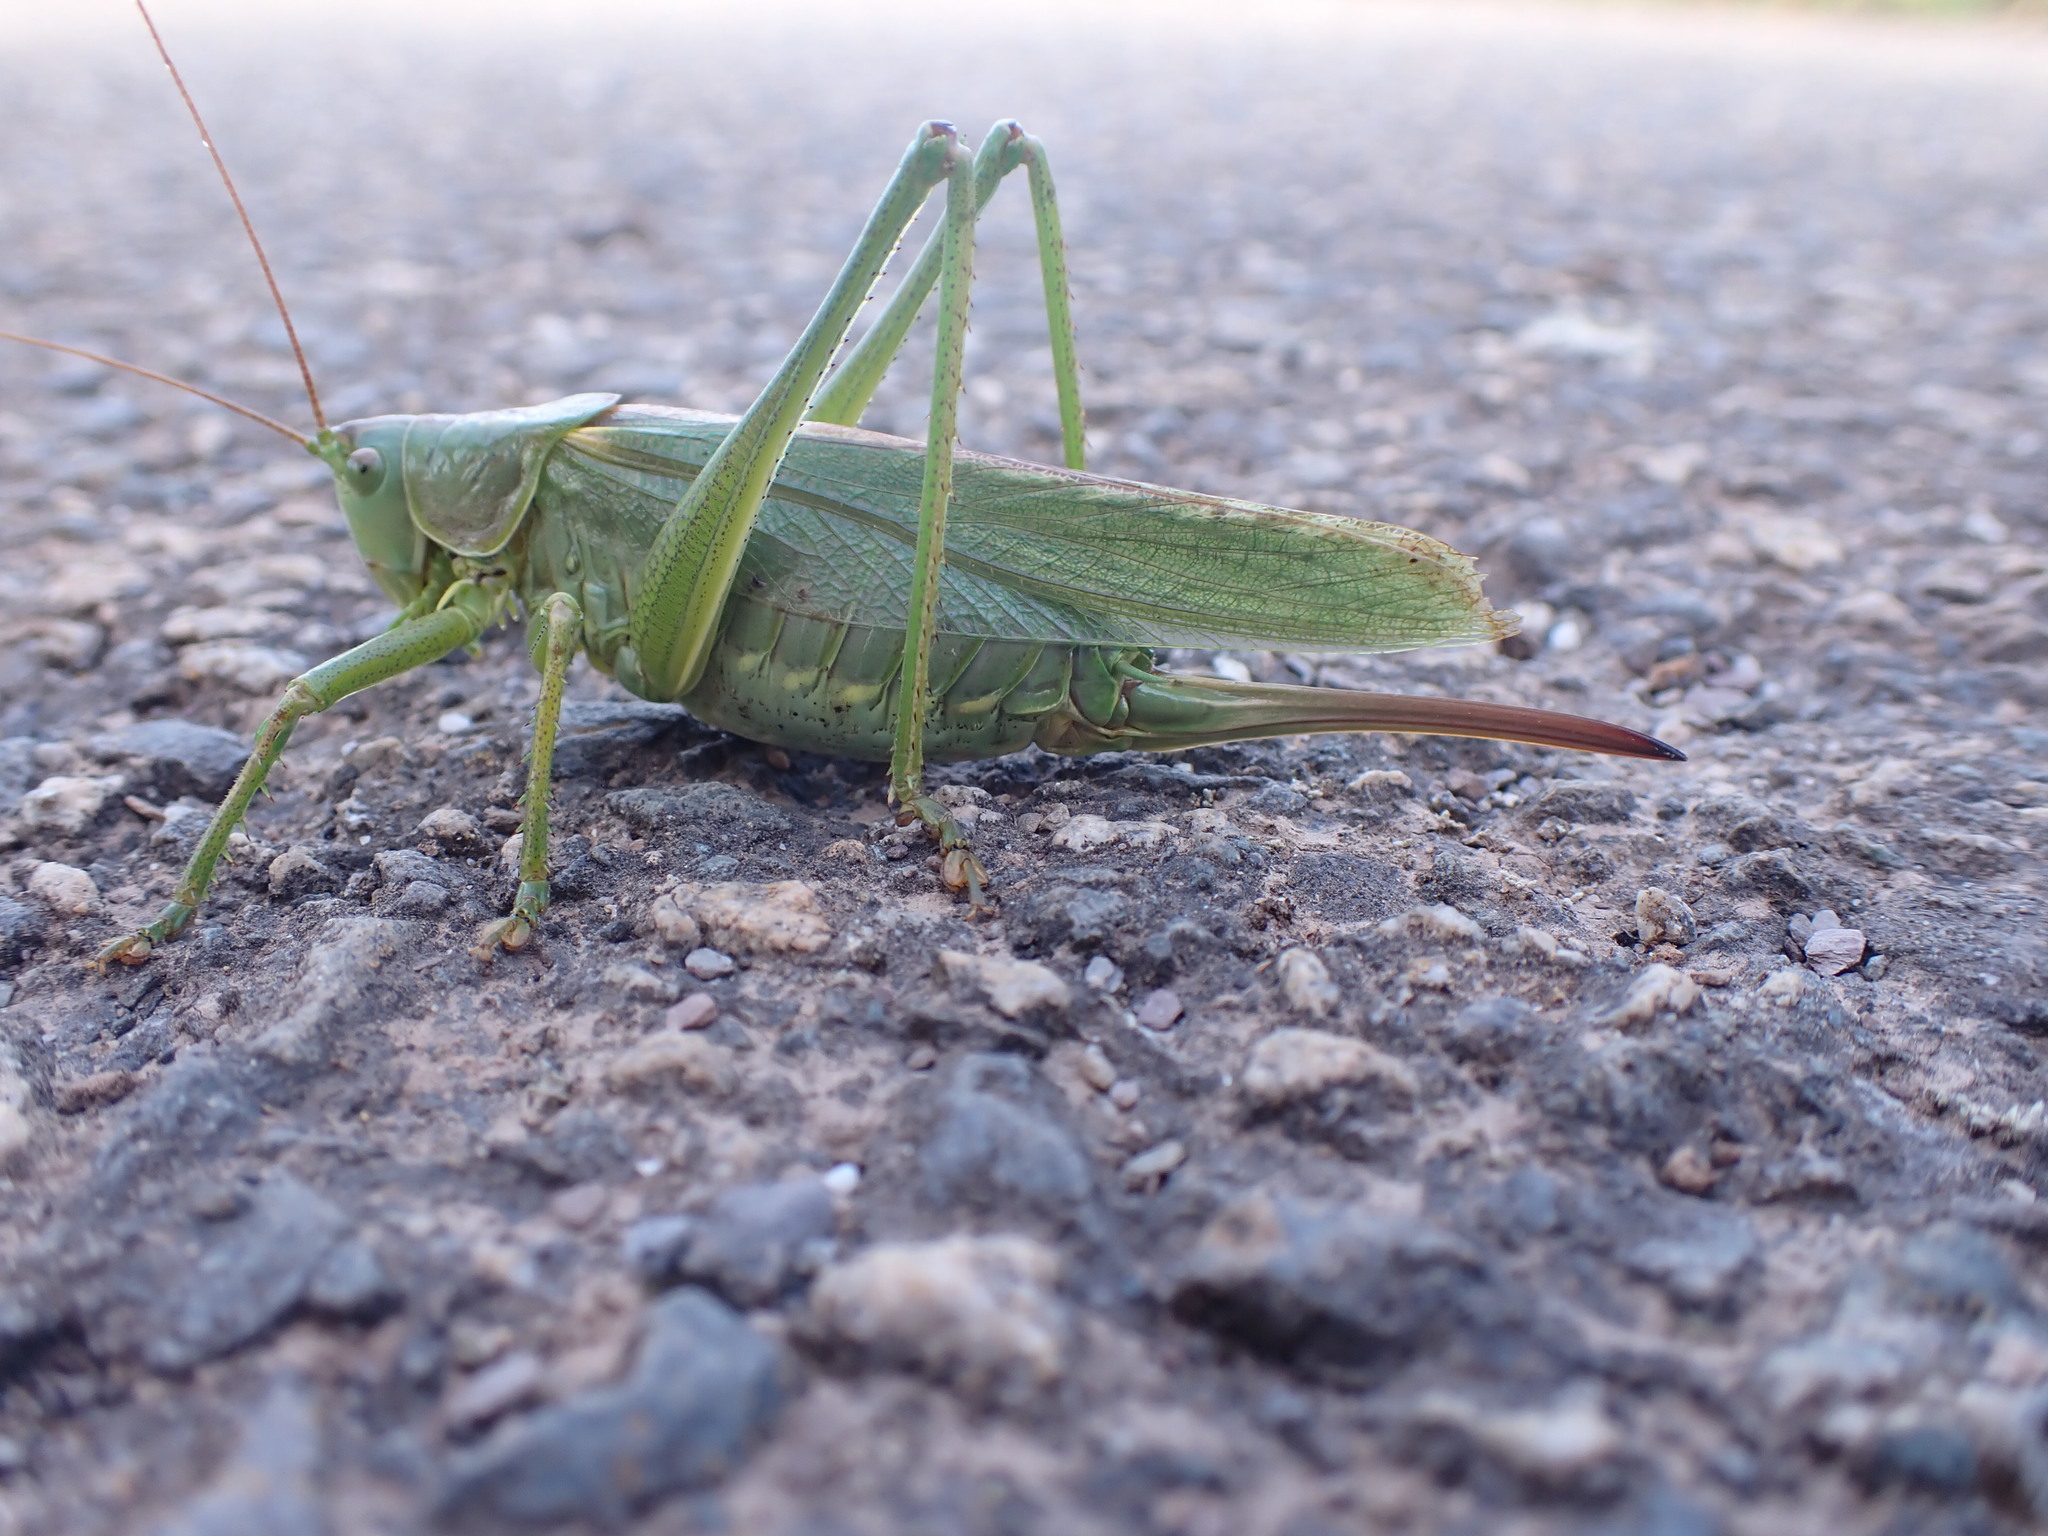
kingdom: Animalia
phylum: Arthropoda
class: Insecta
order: Orthoptera
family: Tettigoniidae
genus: Tettigonia
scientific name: Tettigonia viridissima
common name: Great green bush-cricket
